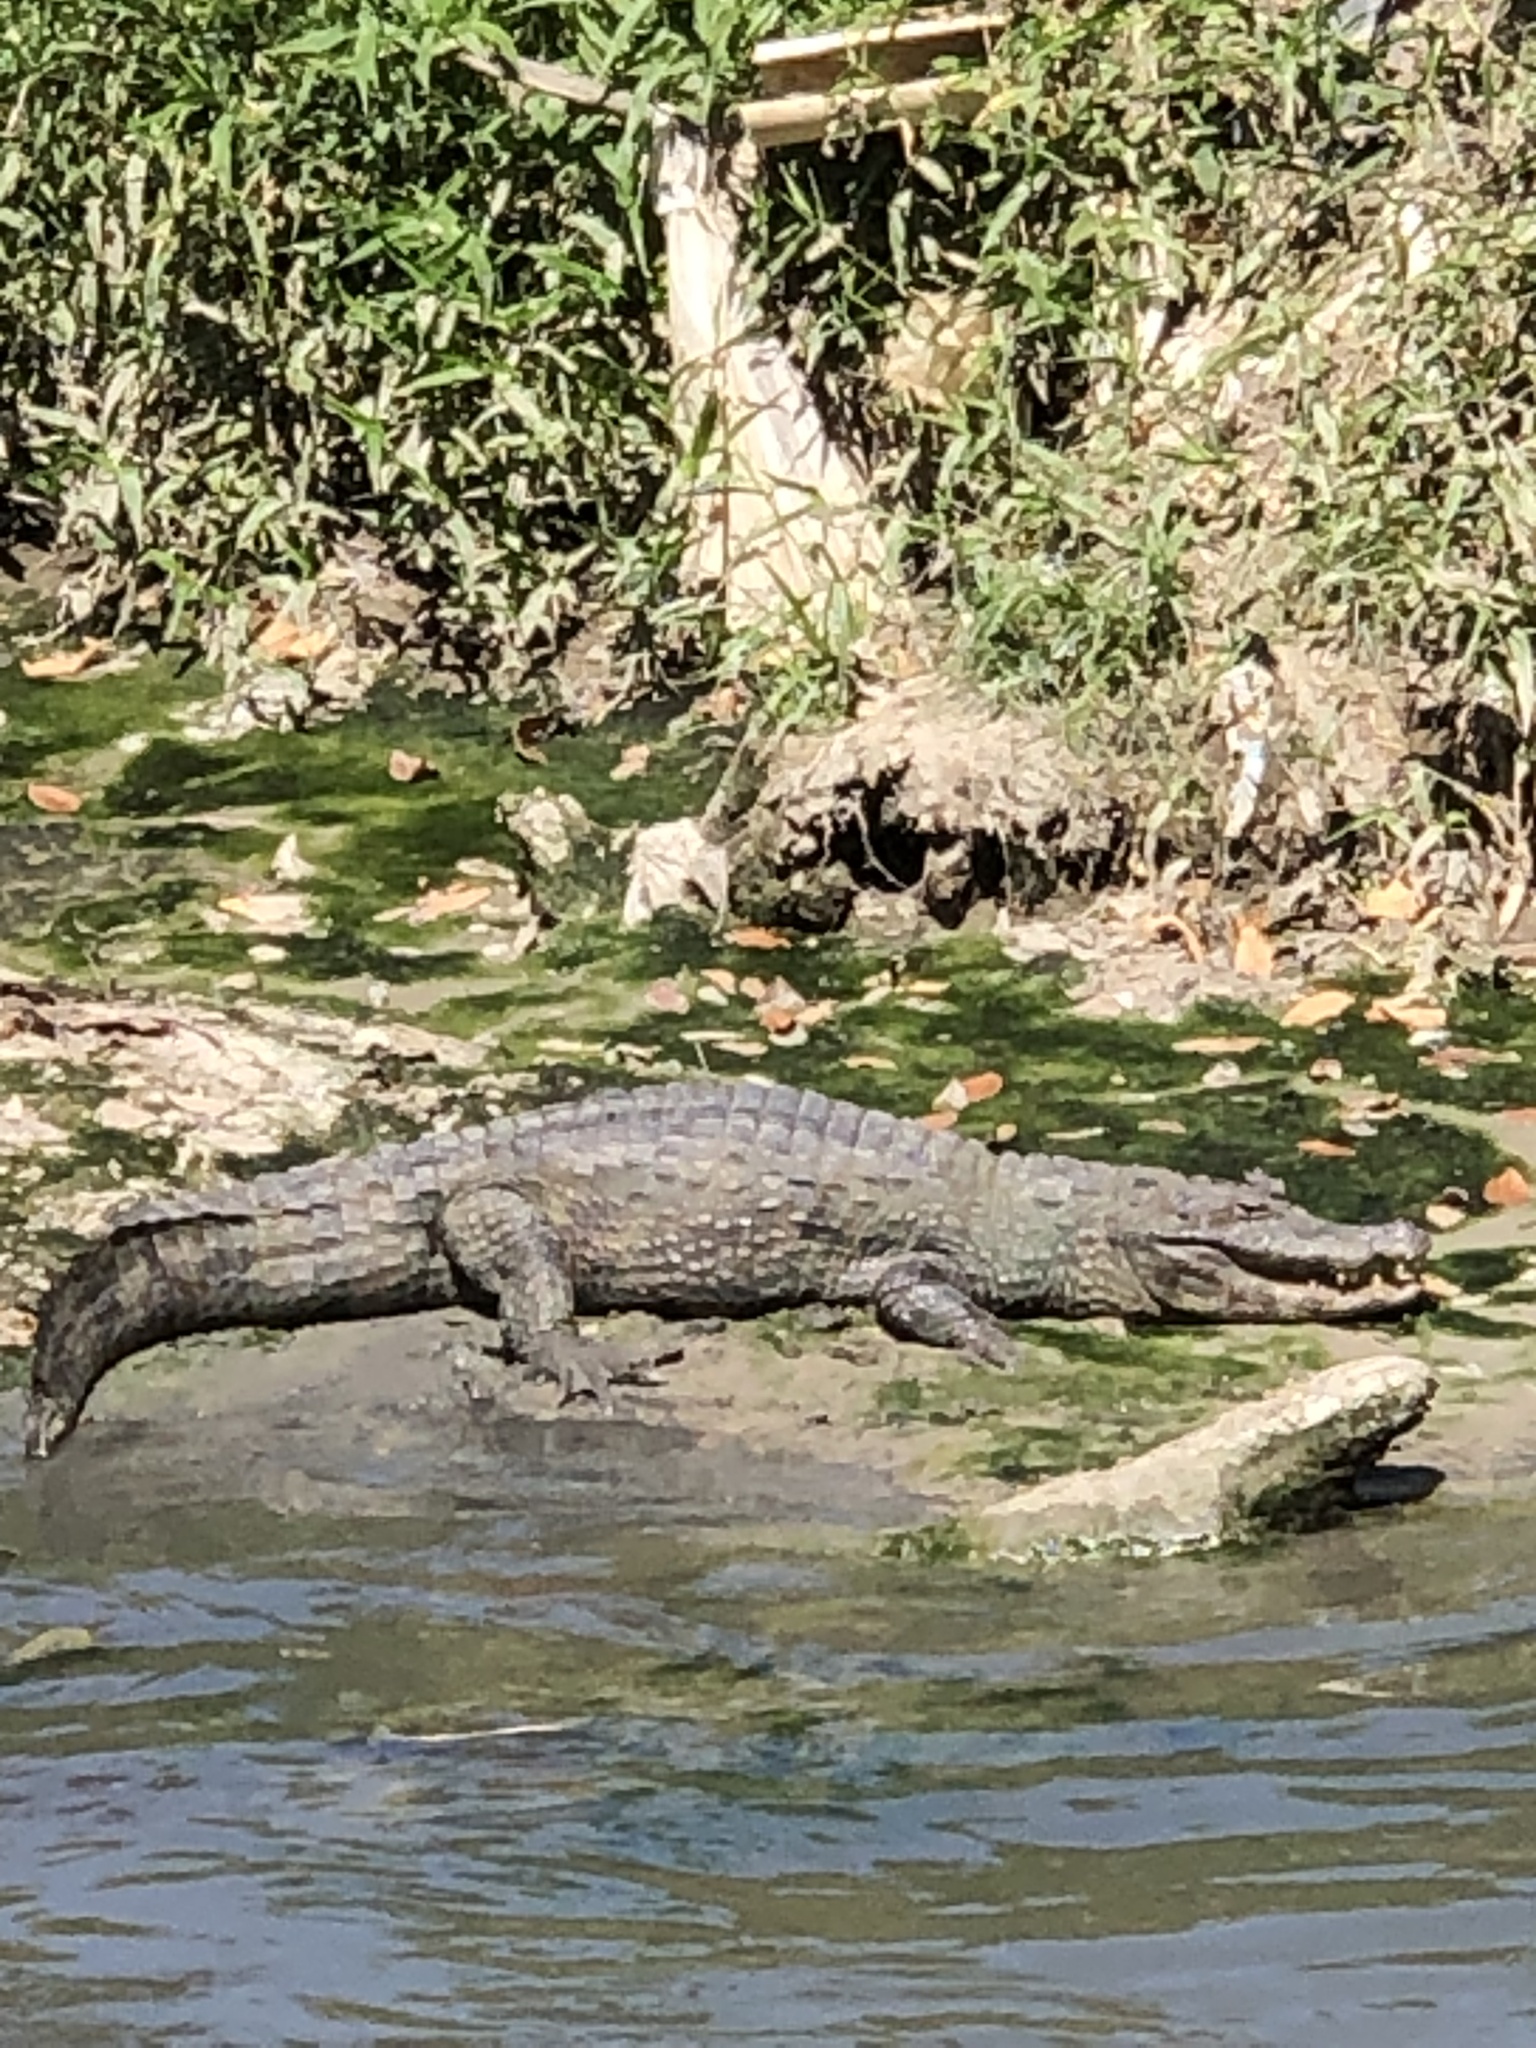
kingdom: Animalia
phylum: Chordata
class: Crocodylia
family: Alligatoridae
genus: Caiman
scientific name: Caiman crocodilus
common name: Common caiman
